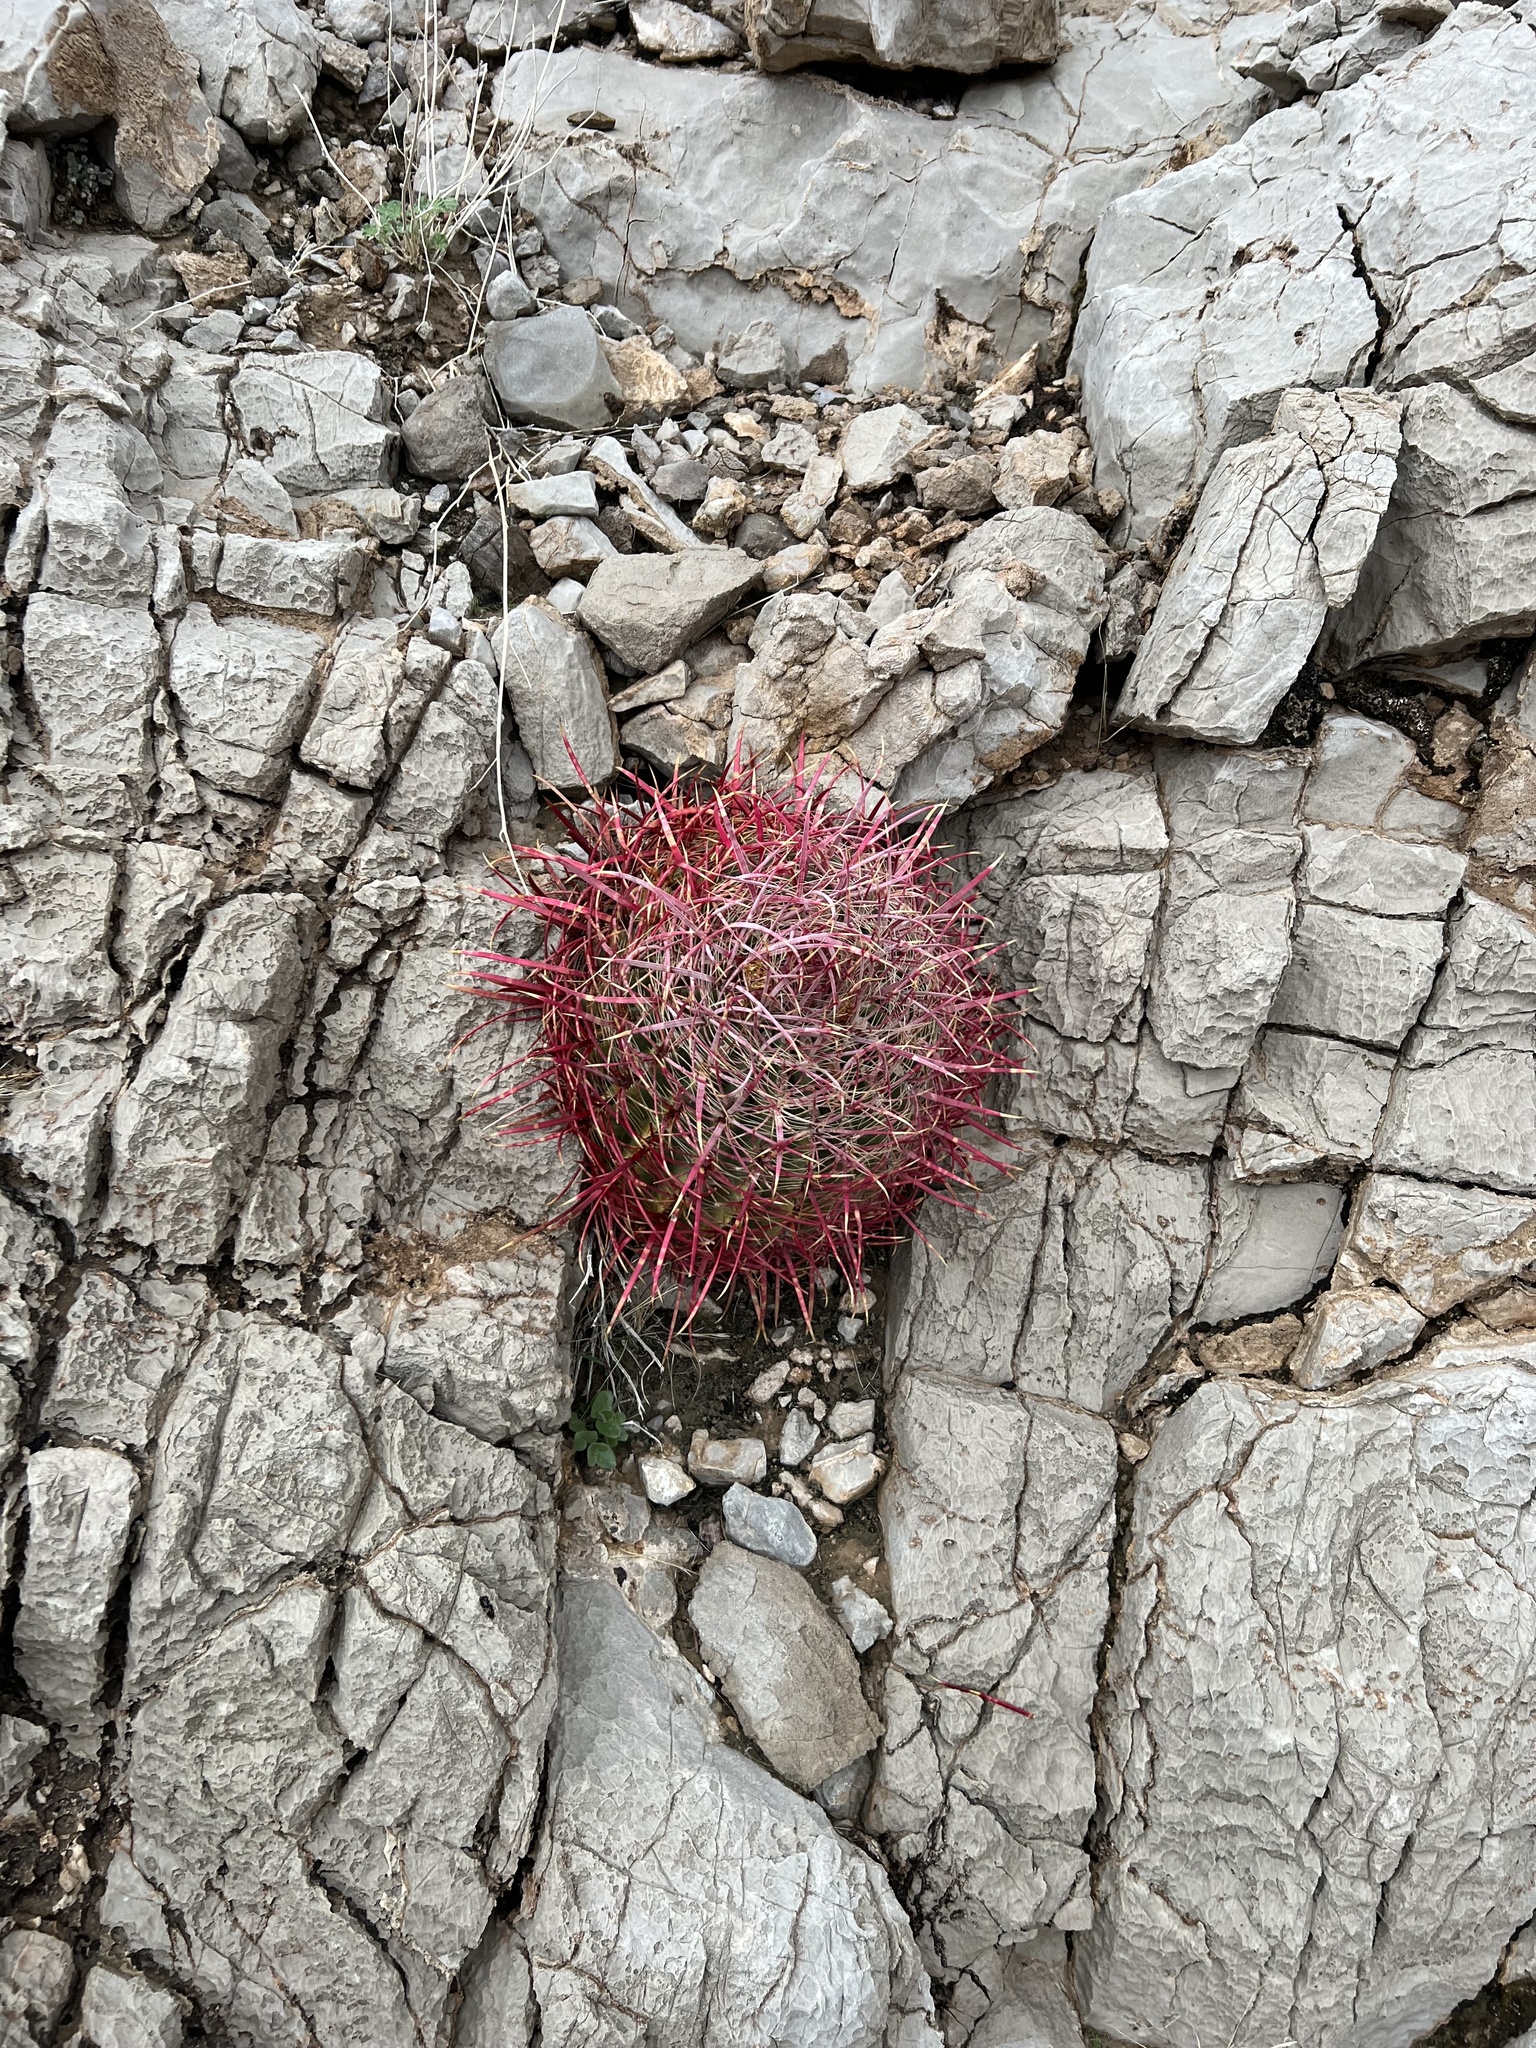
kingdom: Plantae
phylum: Tracheophyta
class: Magnoliopsida
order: Caryophyllales
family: Cactaceae
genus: Ferocactus
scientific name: Ferocactus cylindraceus
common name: California barrel cactus
